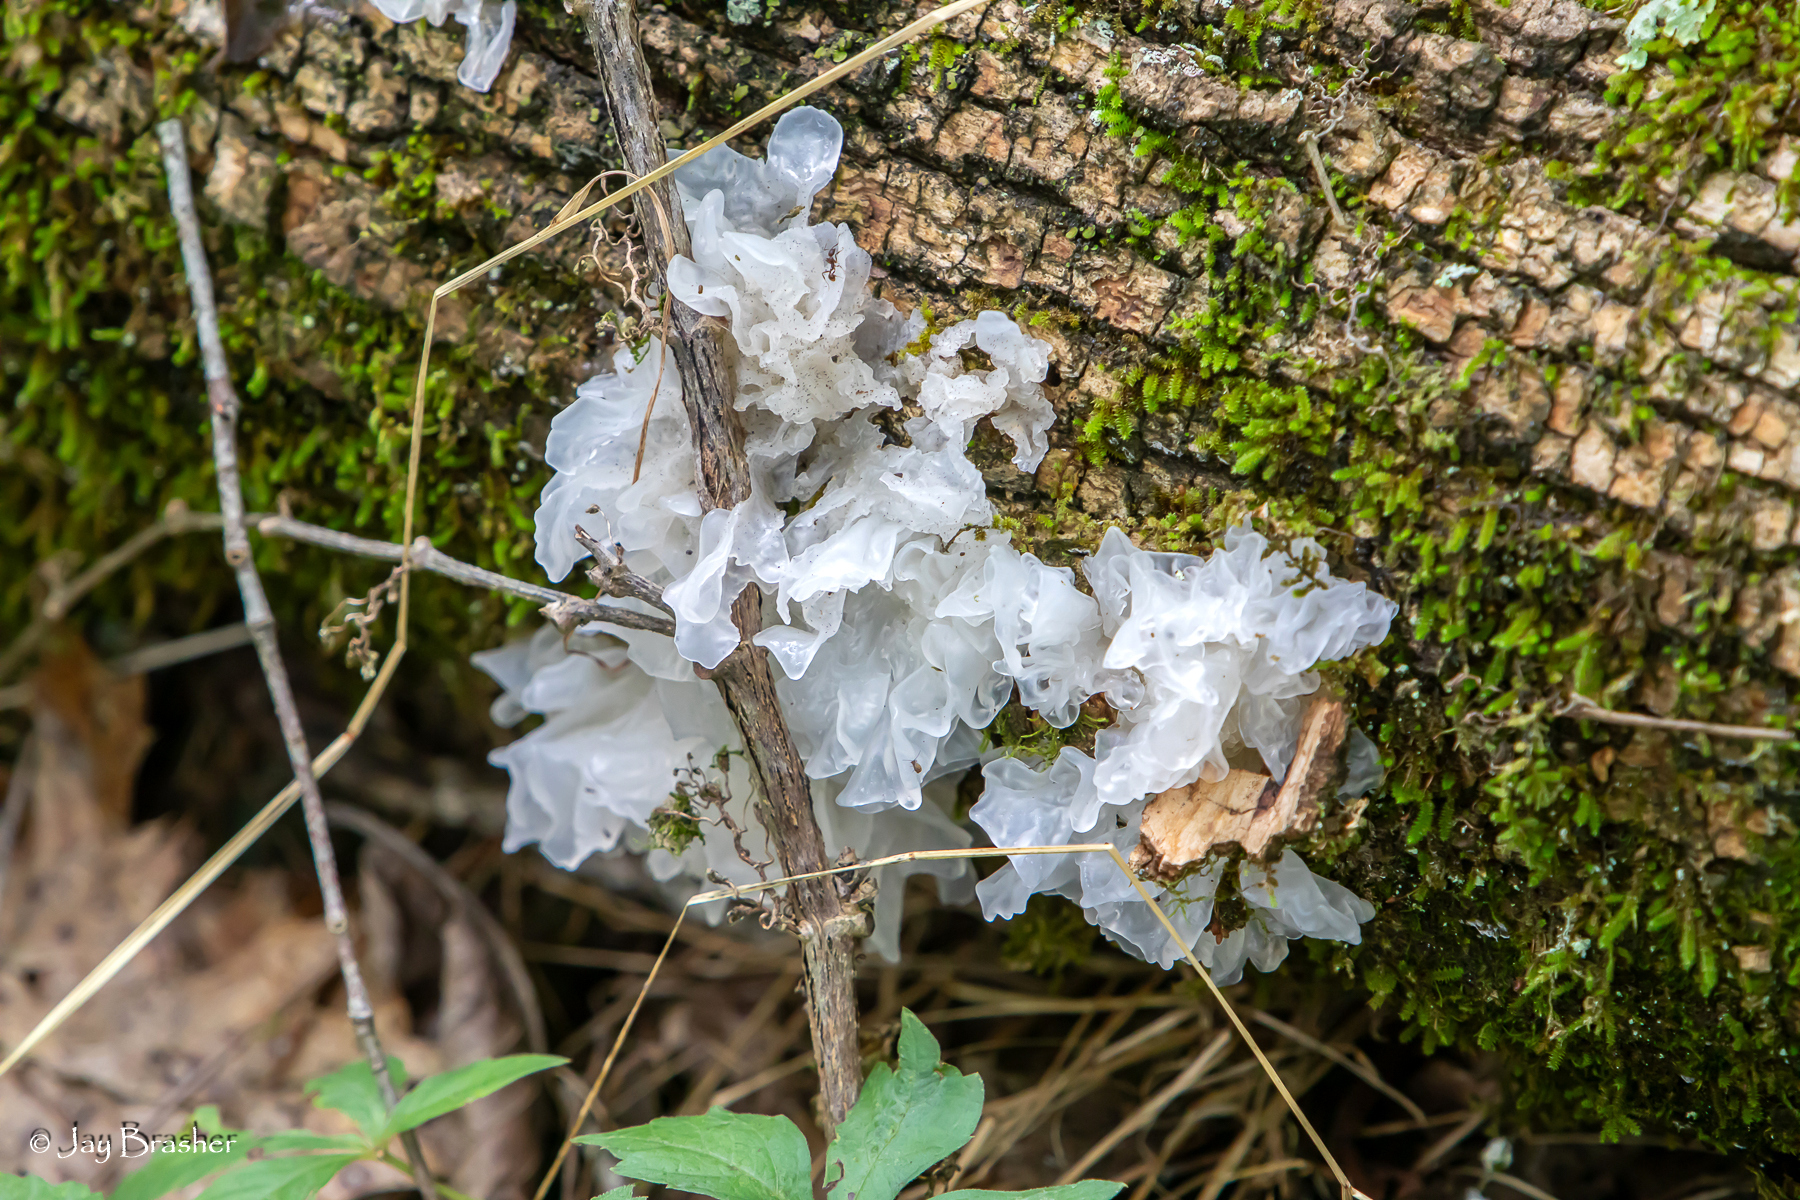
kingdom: Fungi
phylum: Basidiomycota
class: Tremellomycetes
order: Tremellales
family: Tremellaceae
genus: Tremella
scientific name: Tremella fuciformis
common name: Snow fungus
